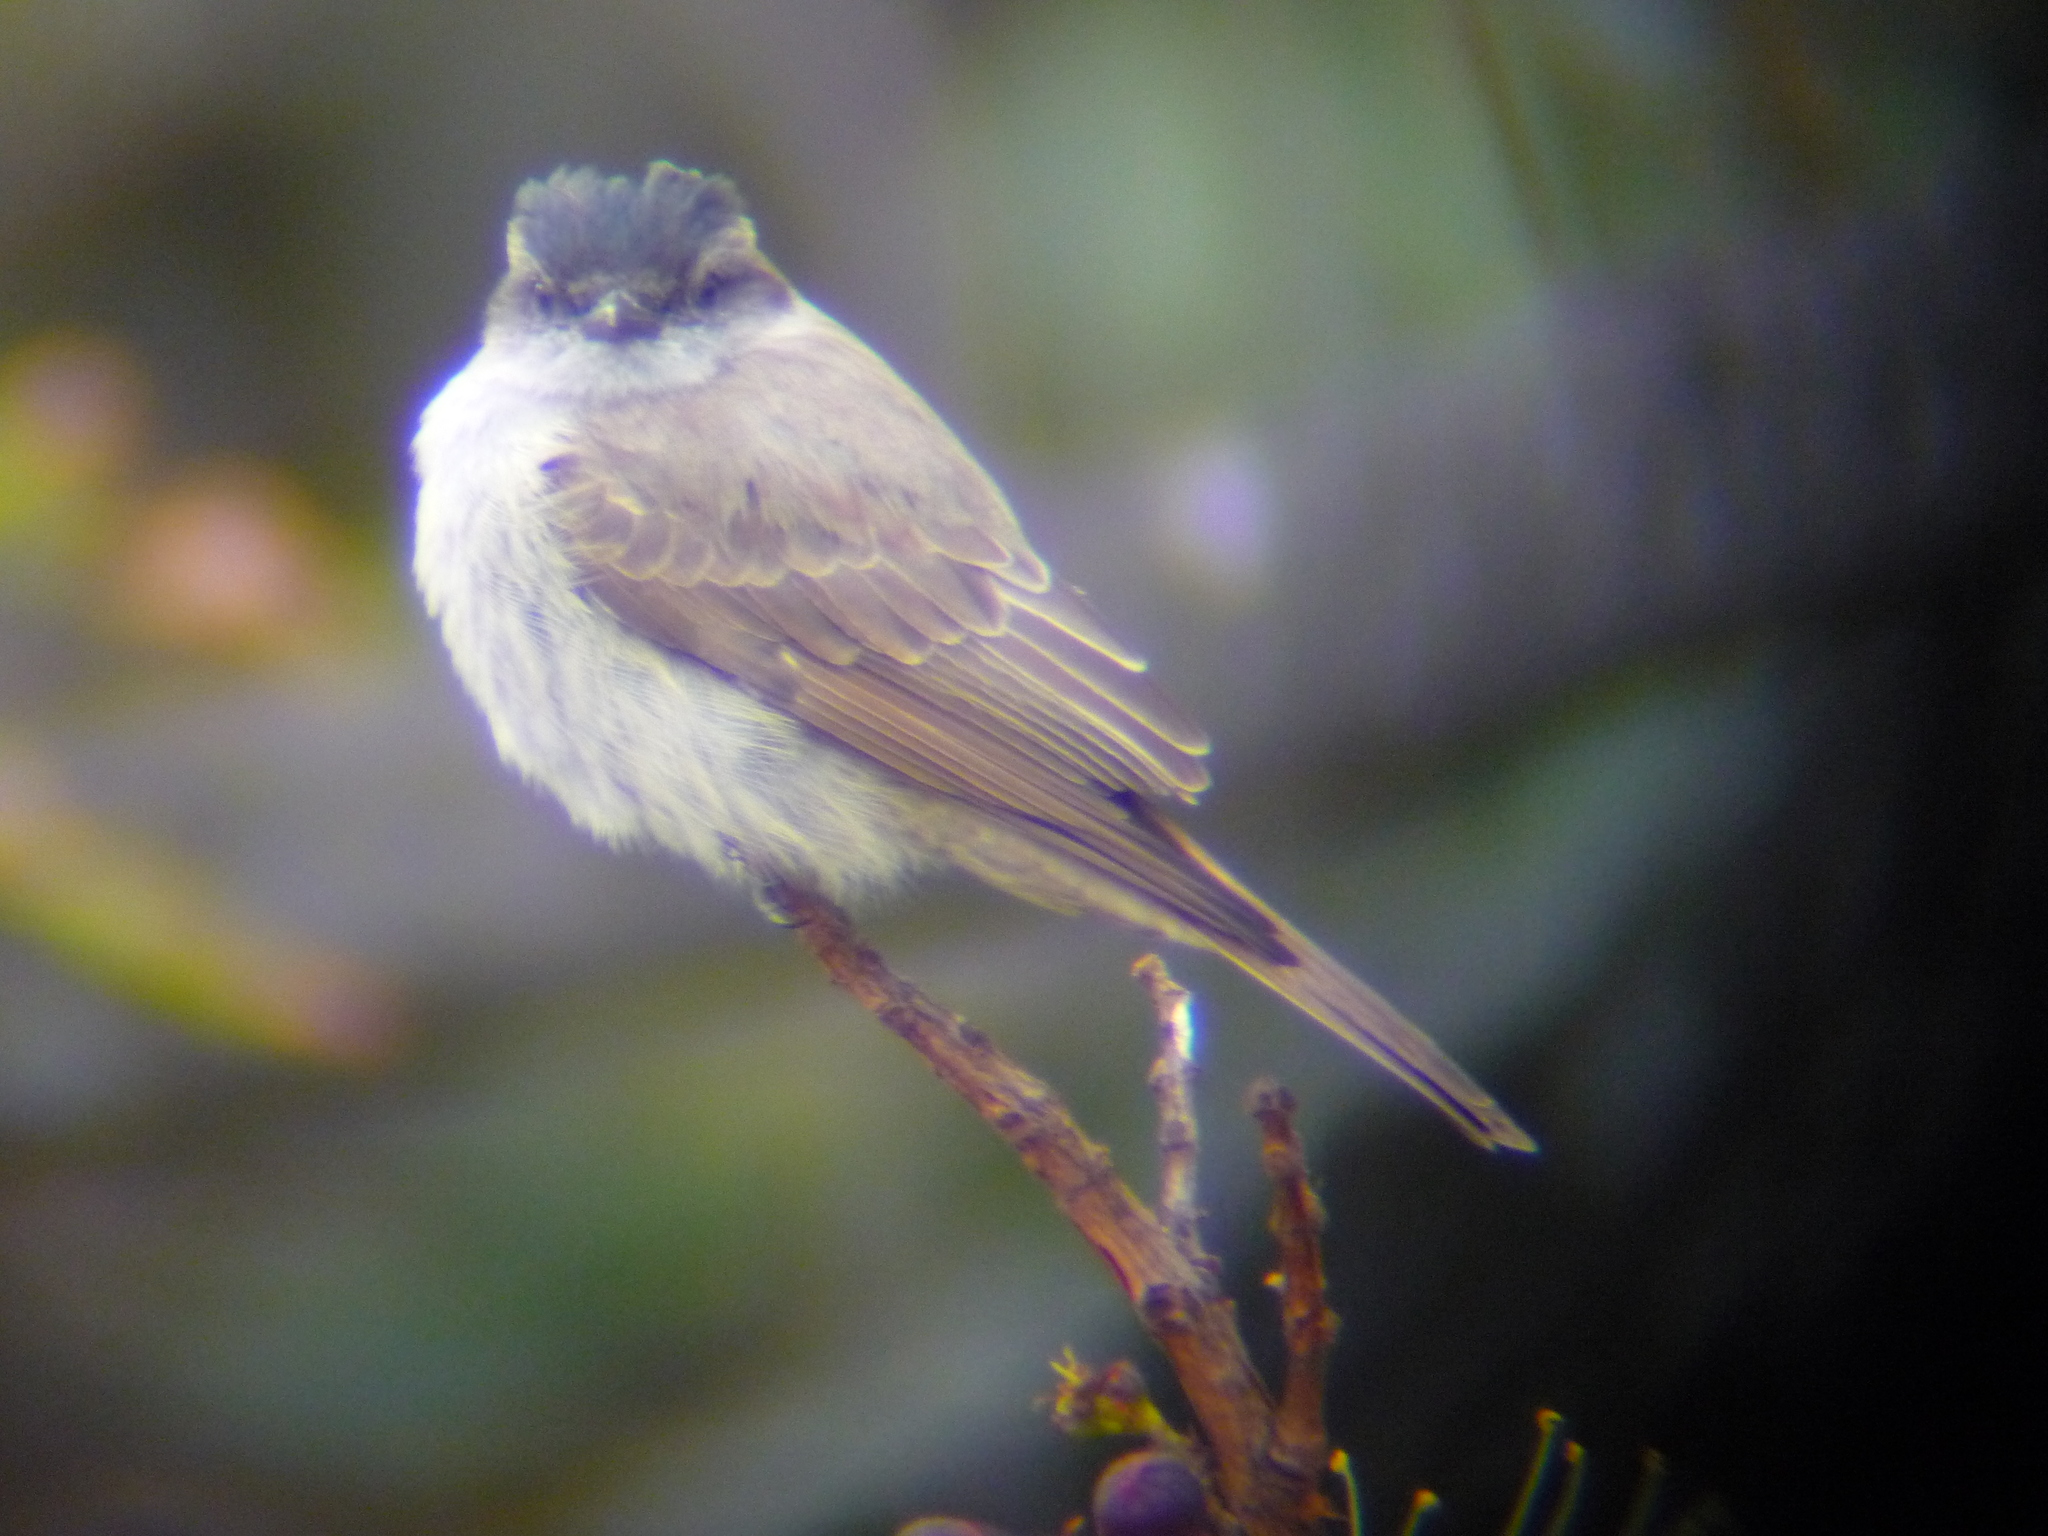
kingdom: Animalia
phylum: Chordata
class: Aves
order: Passeriformes
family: Tyrannidae
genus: Empidonomus
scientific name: Empidonomus aurantioatrocristatus
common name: Crowned slaty flycatcher
